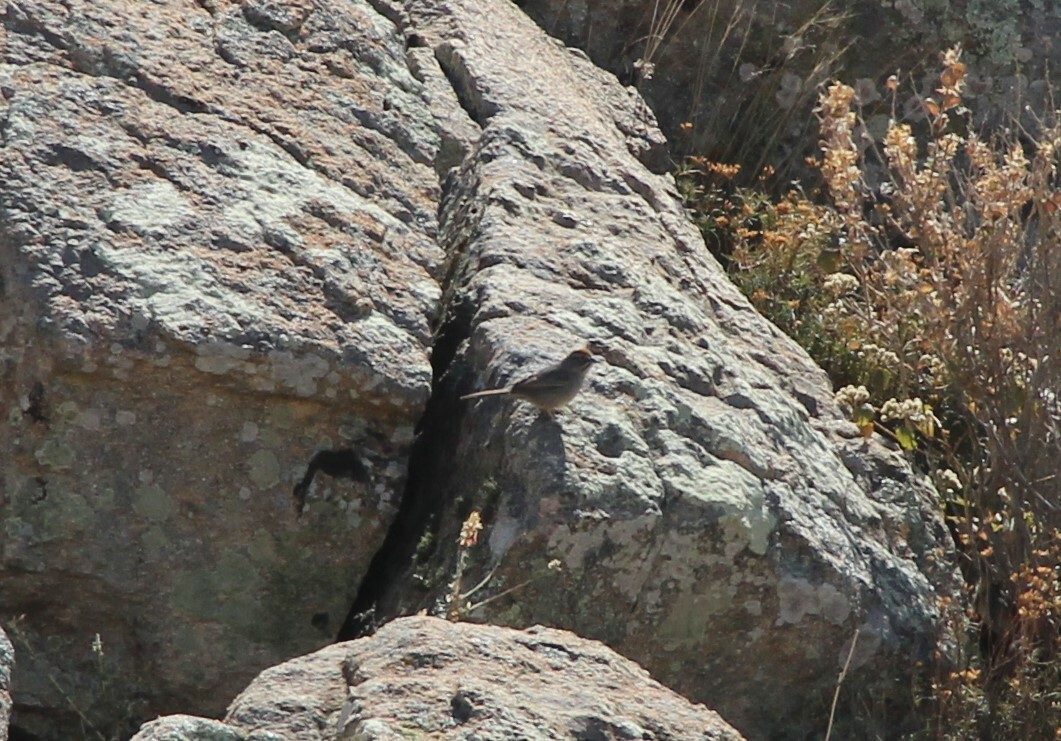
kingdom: Animalia
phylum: Chordata
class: Aves
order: Passeriformes
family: Passerellidae
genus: Aimophila
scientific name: Aimophila ruficeps
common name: Rufous-crowned sparrow
